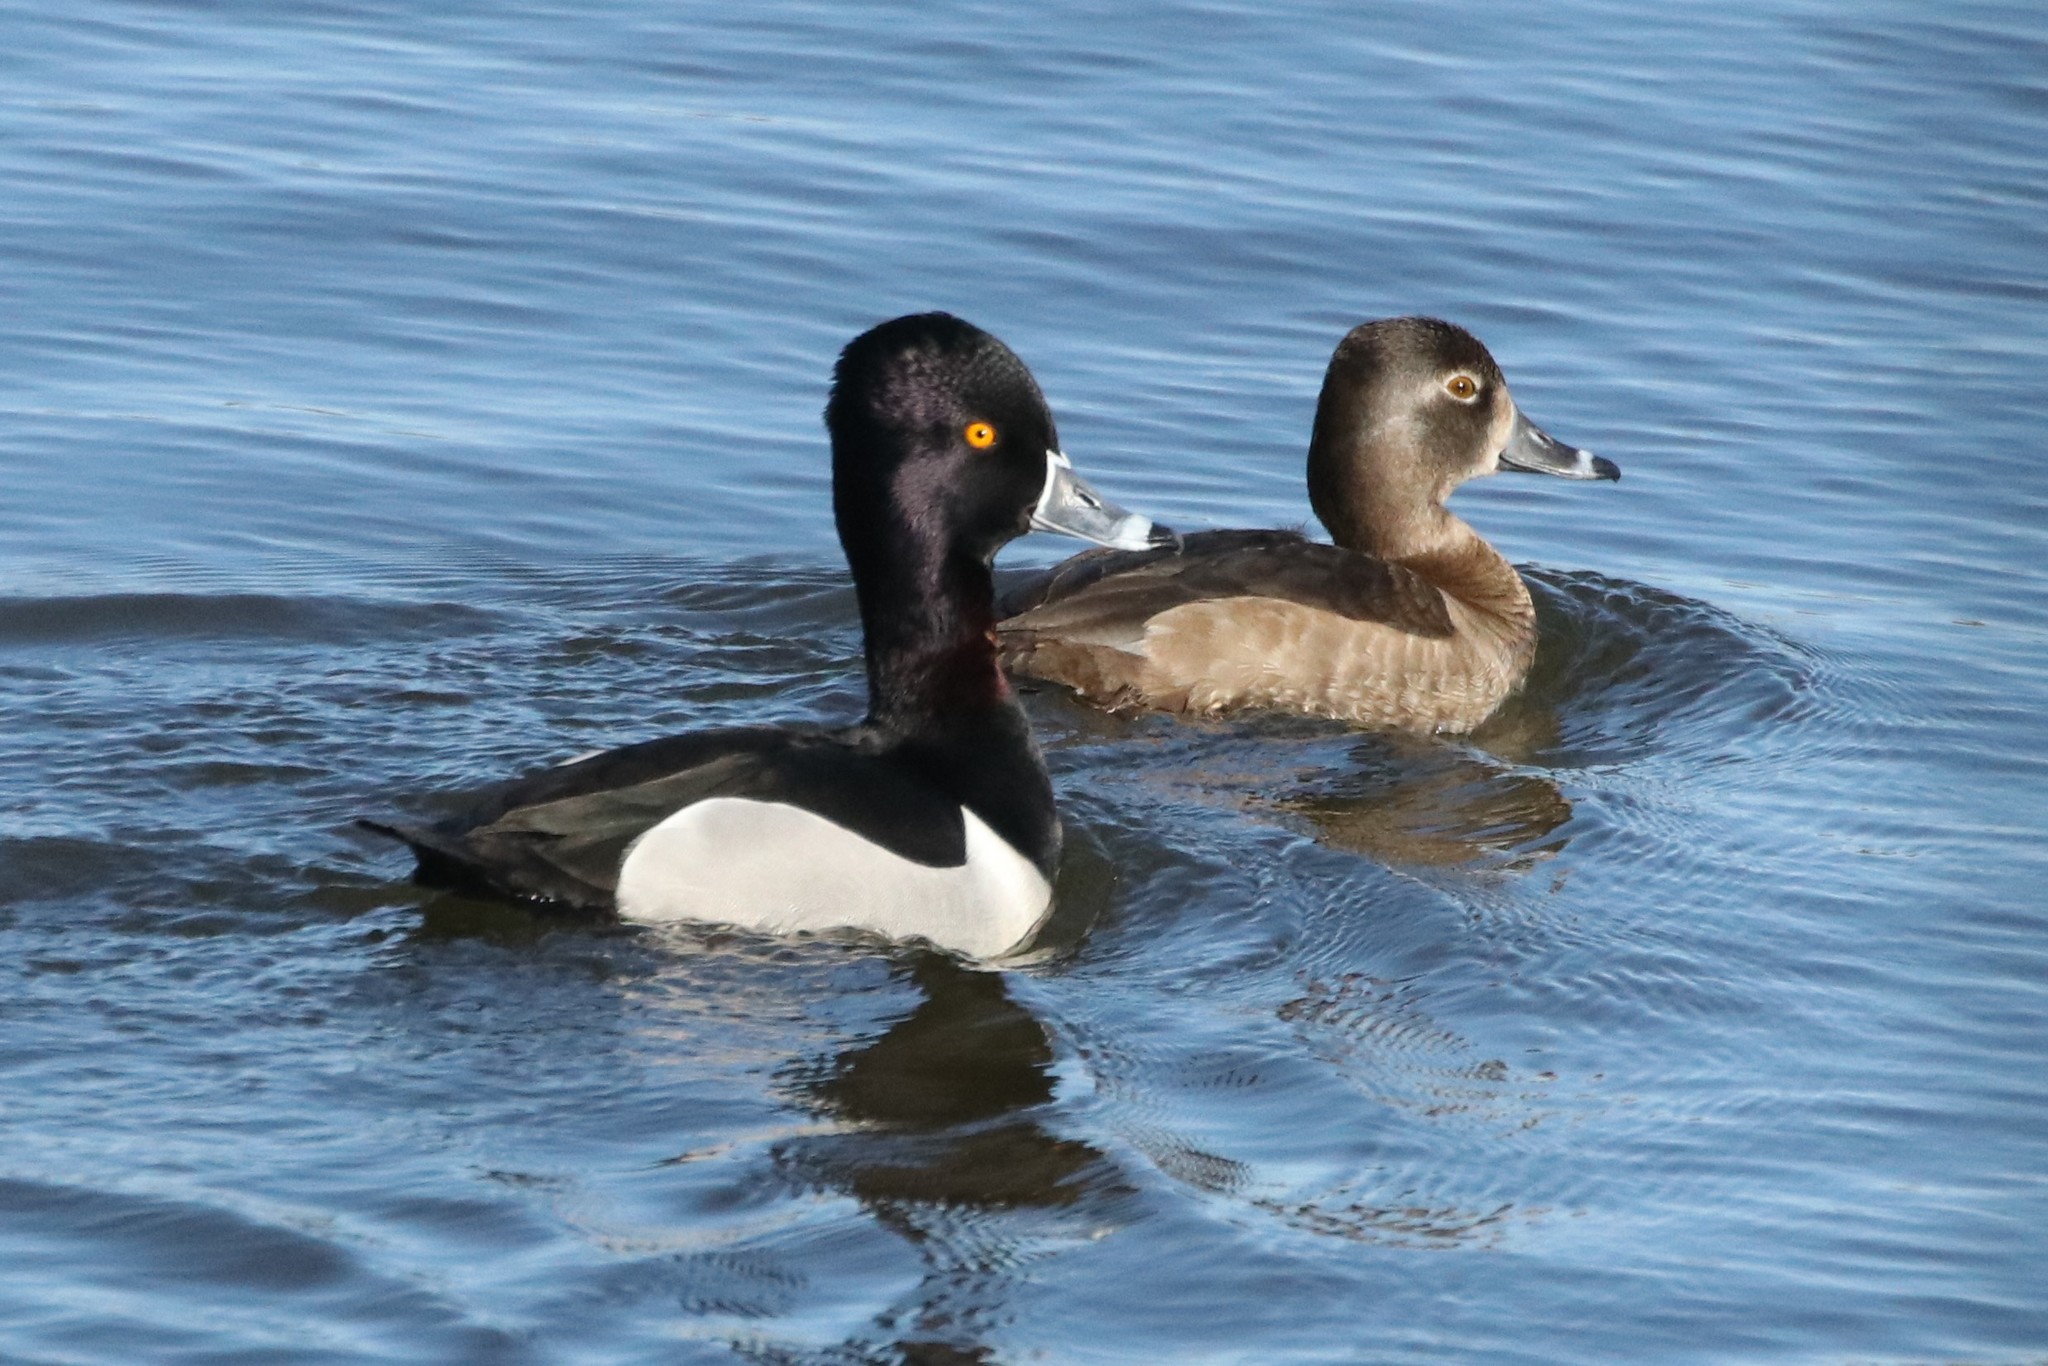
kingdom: Animalia
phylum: Chordata
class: Aves
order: Anseriformes
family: Anatidae
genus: Aythya
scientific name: Aythya collaris
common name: Ring-necked duck
